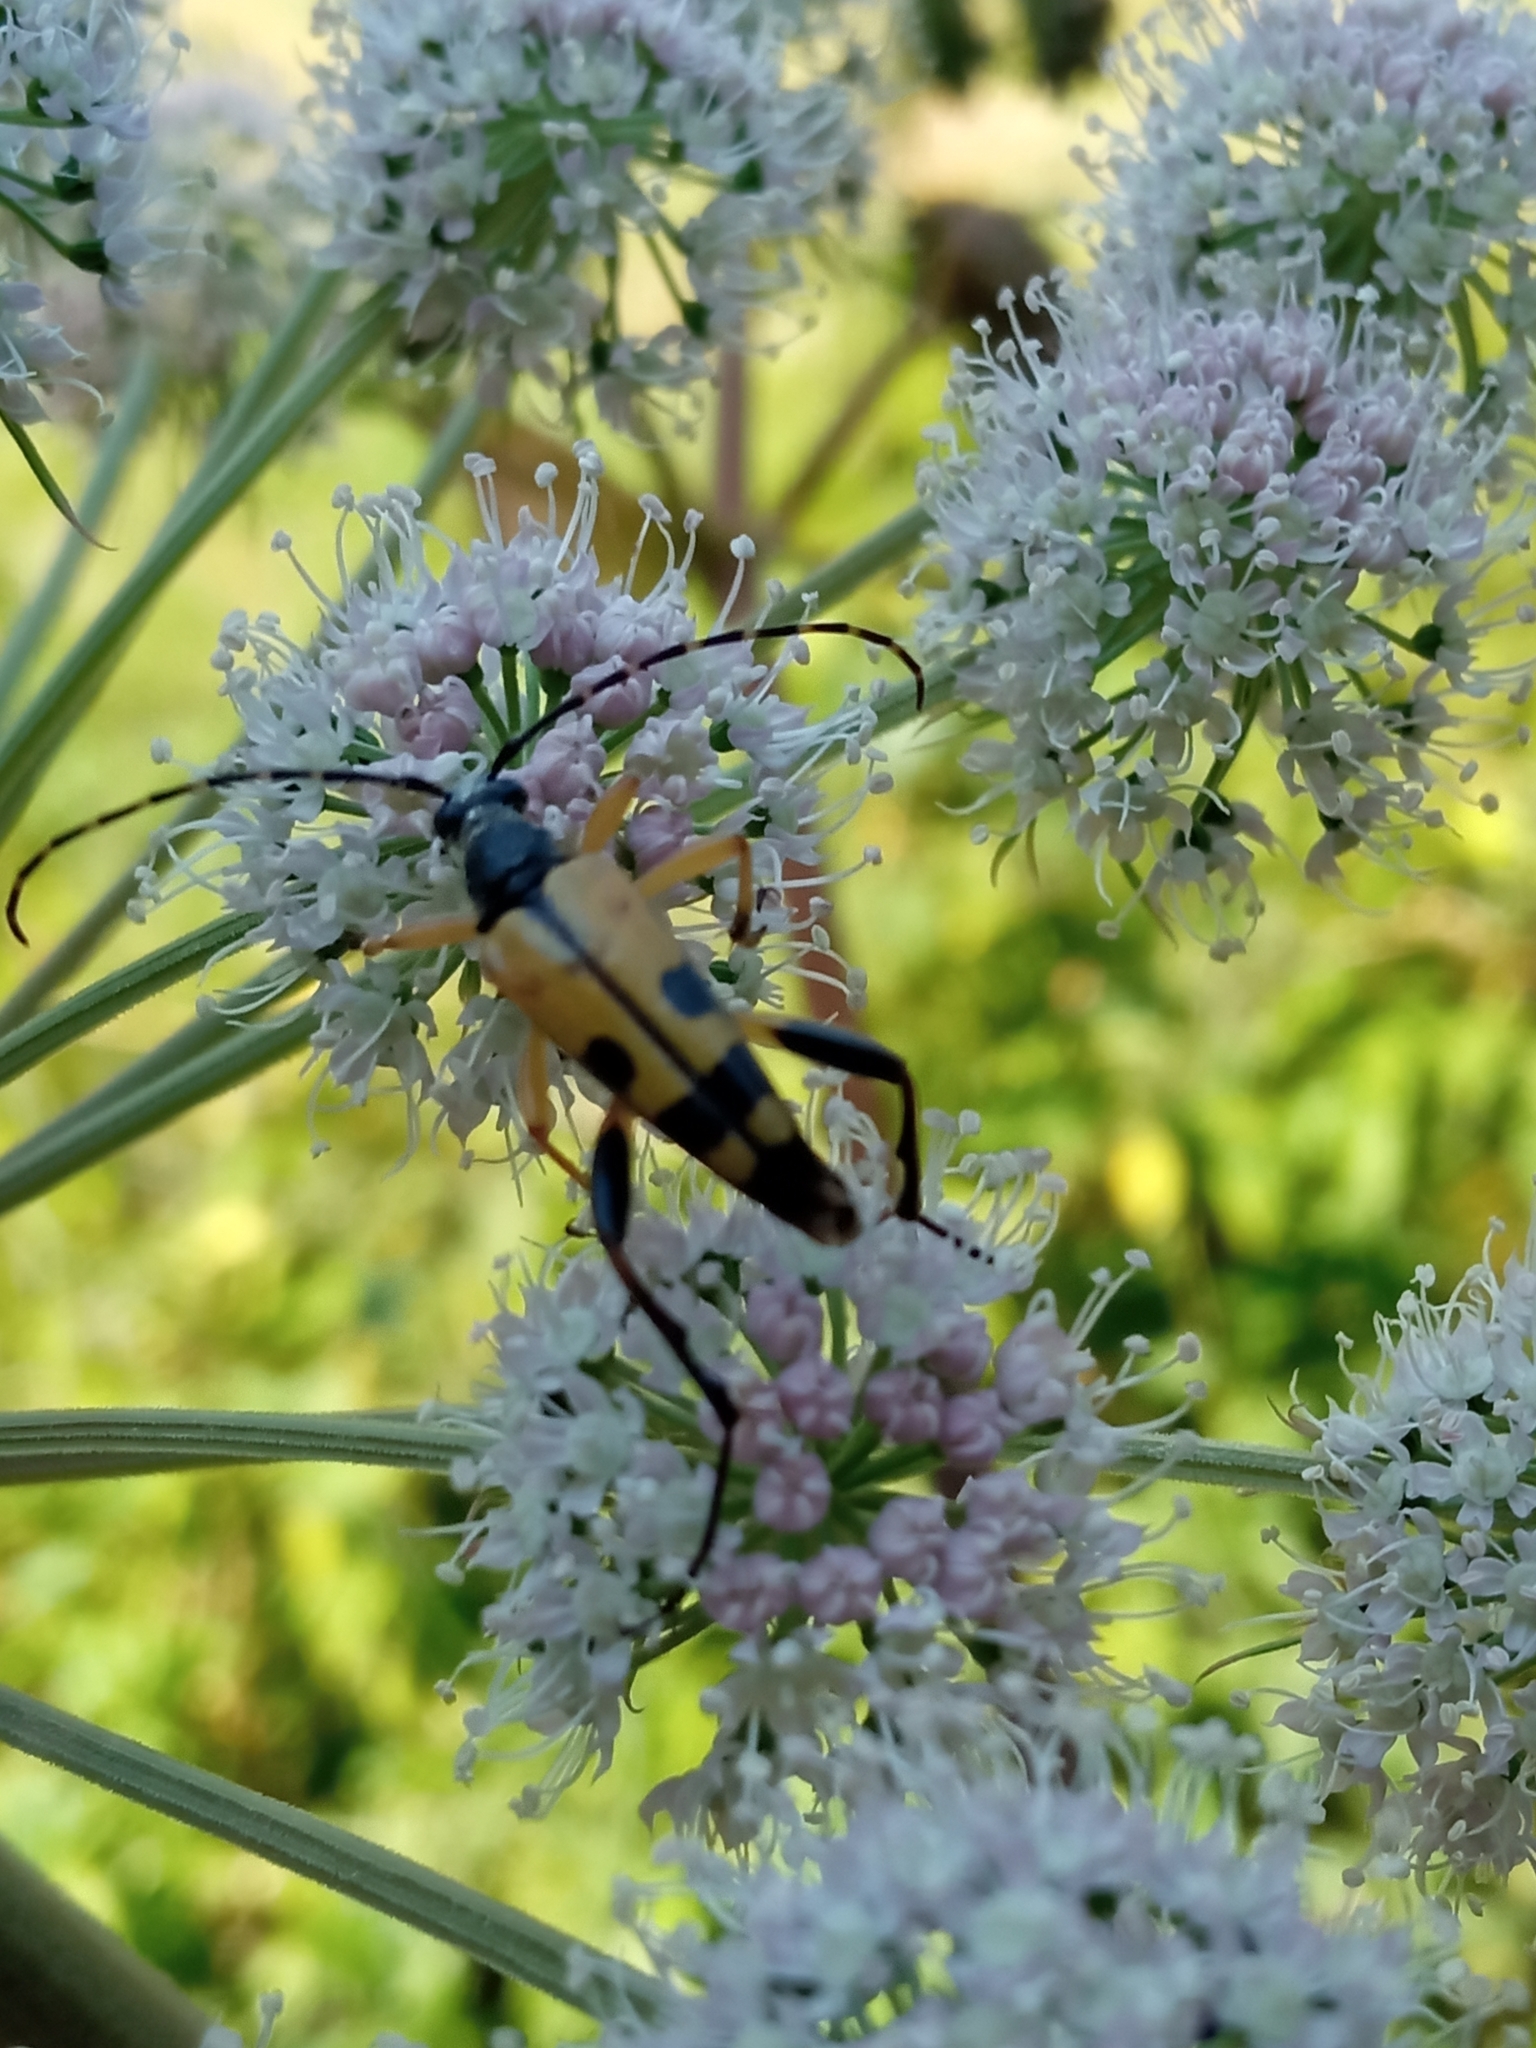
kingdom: Animalia
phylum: Arthropoda
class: Insecta
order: Coleoptera
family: Cerambycidae
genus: Rutpela
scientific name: Rutpela maculata
